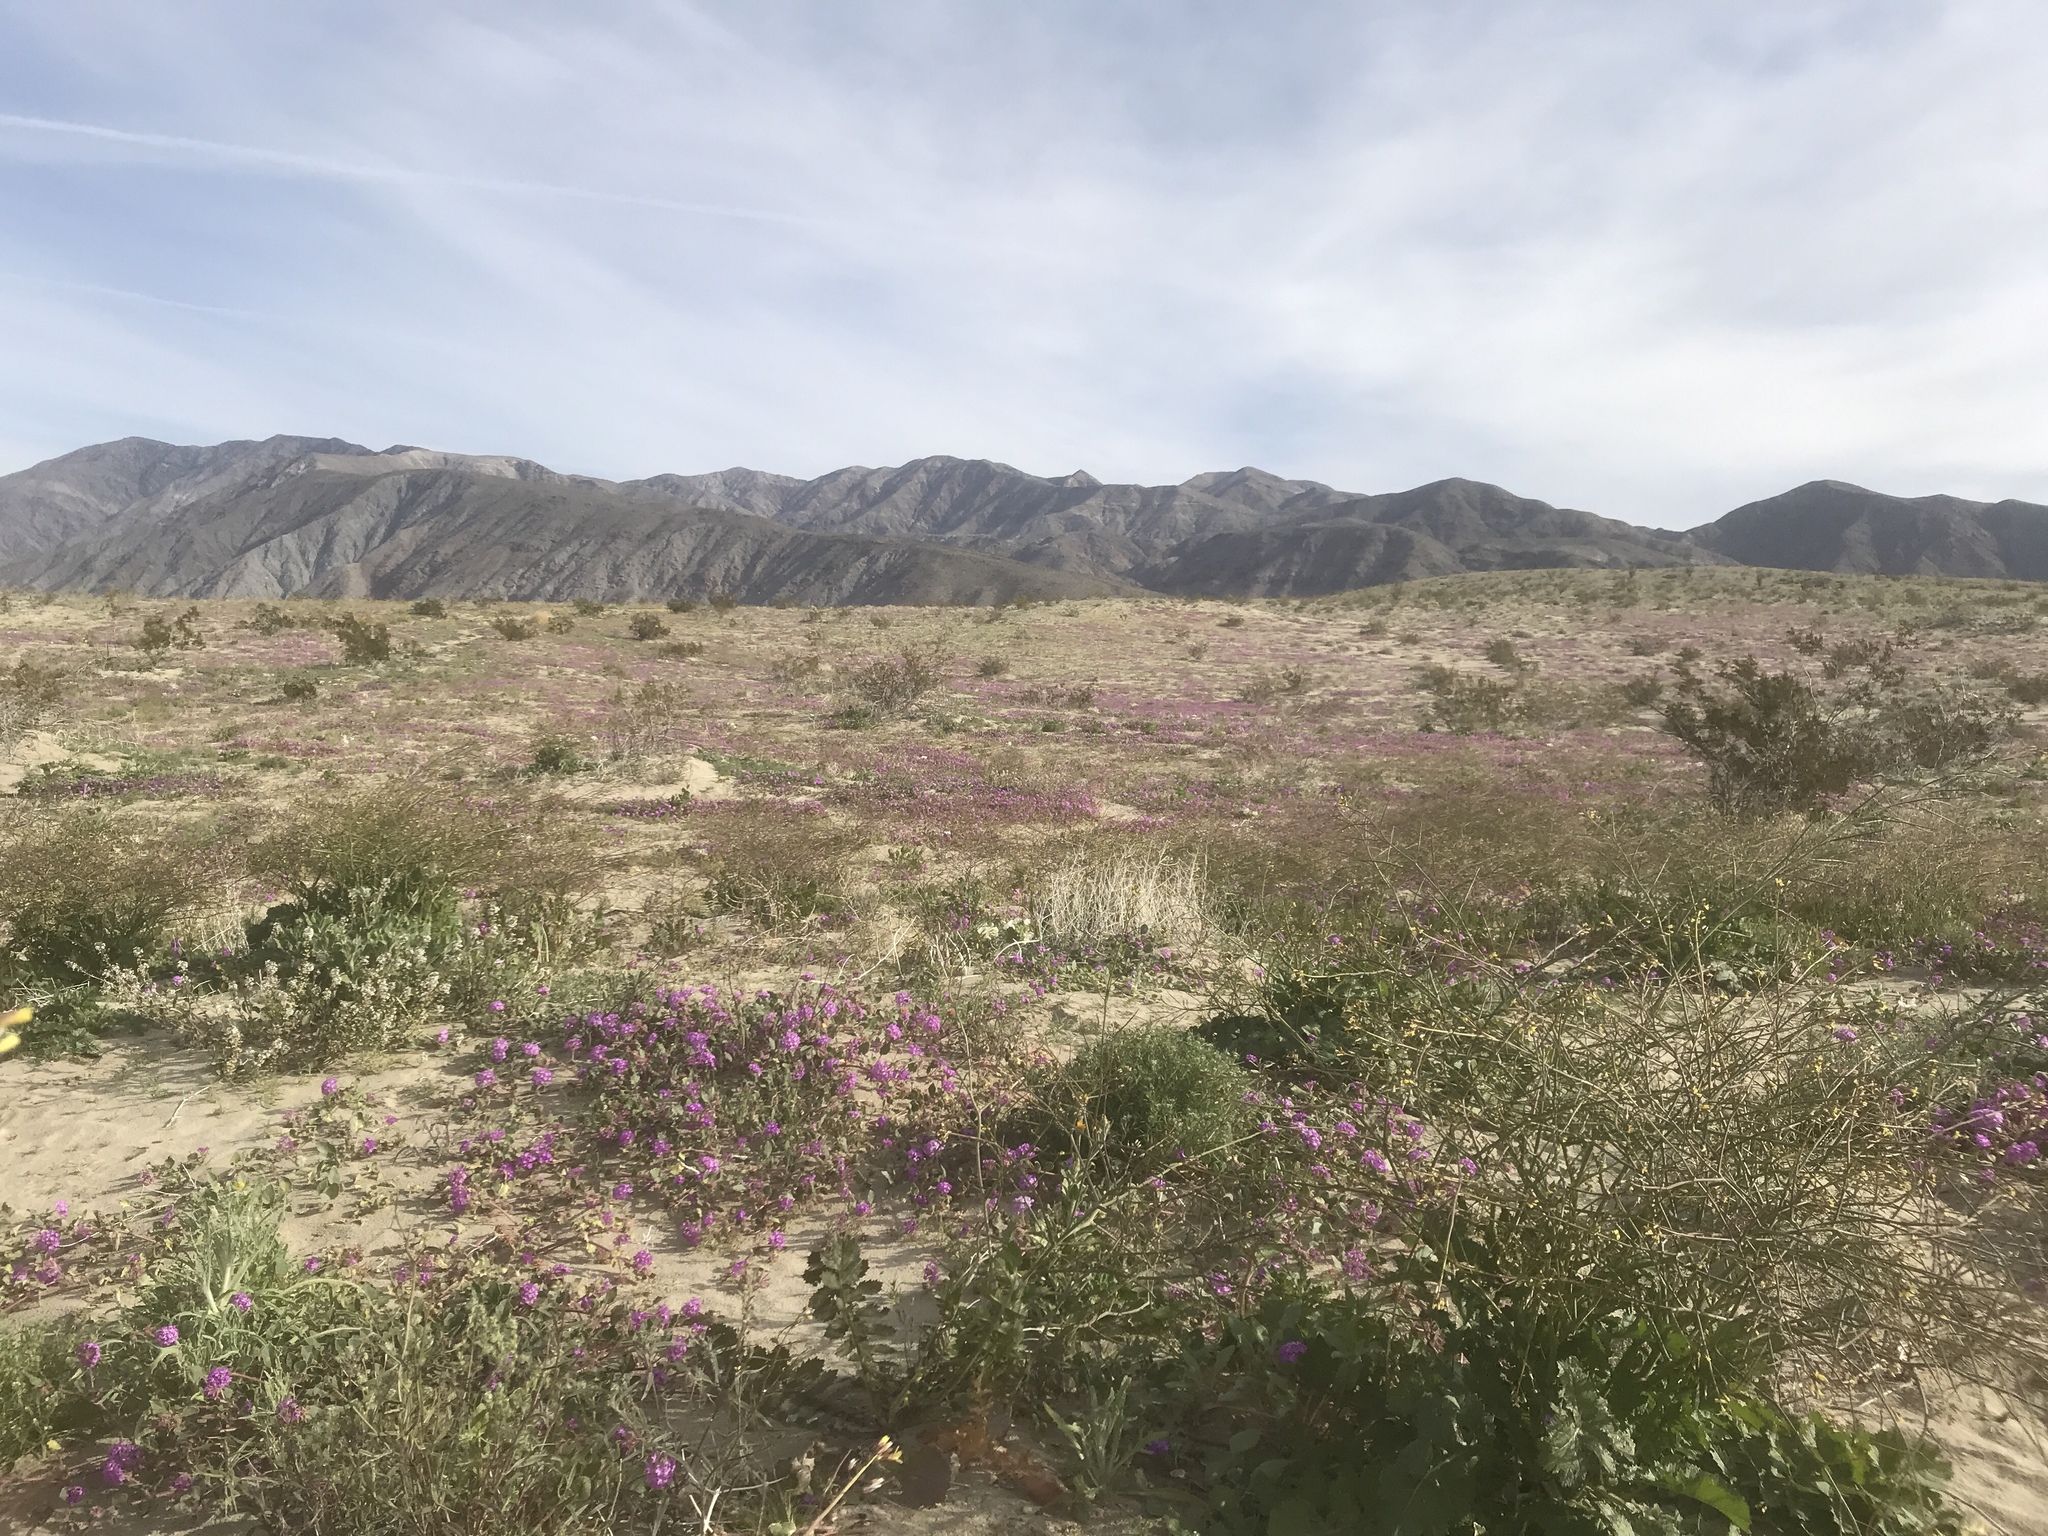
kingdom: Plantae
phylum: Tracheophyta
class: Magnoliopsida
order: Caryophyllales
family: Nyctaginaceae
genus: Abronia
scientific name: Abronia villosa
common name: Desert sand-verbena
